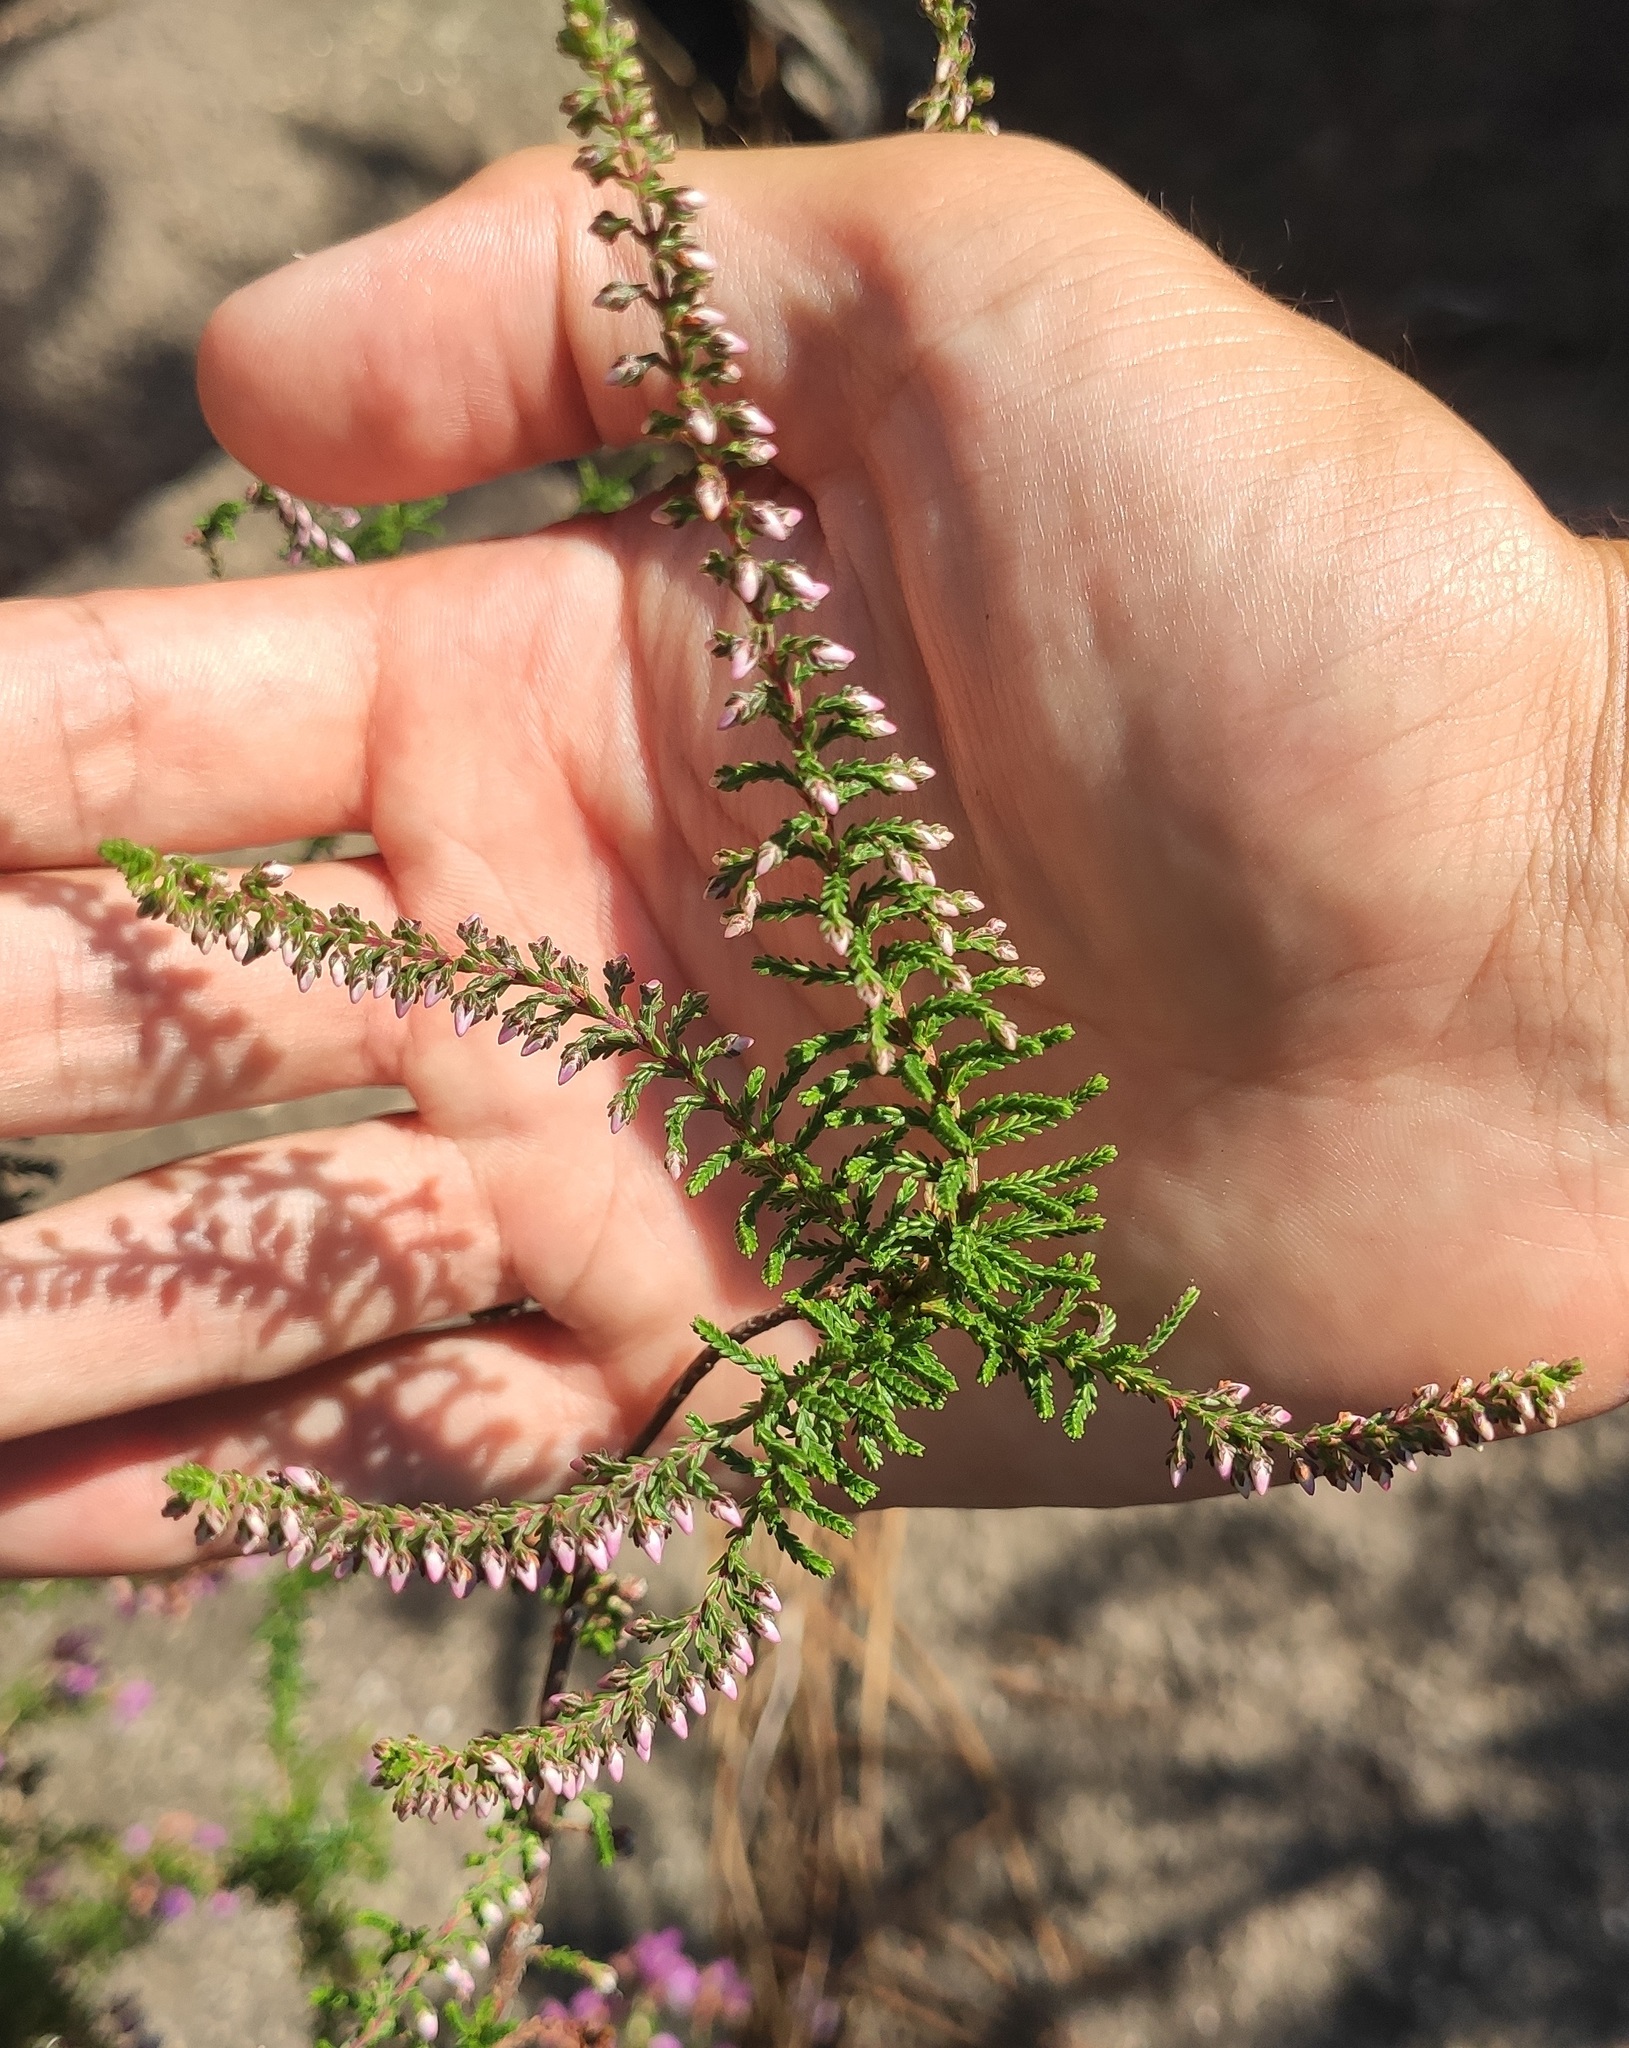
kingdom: Plantae
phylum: Tracheophyta
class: Magnoliopsida
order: Ericales
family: Ericaceae
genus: Calluna
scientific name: Calluna vulgaris
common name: Heather
